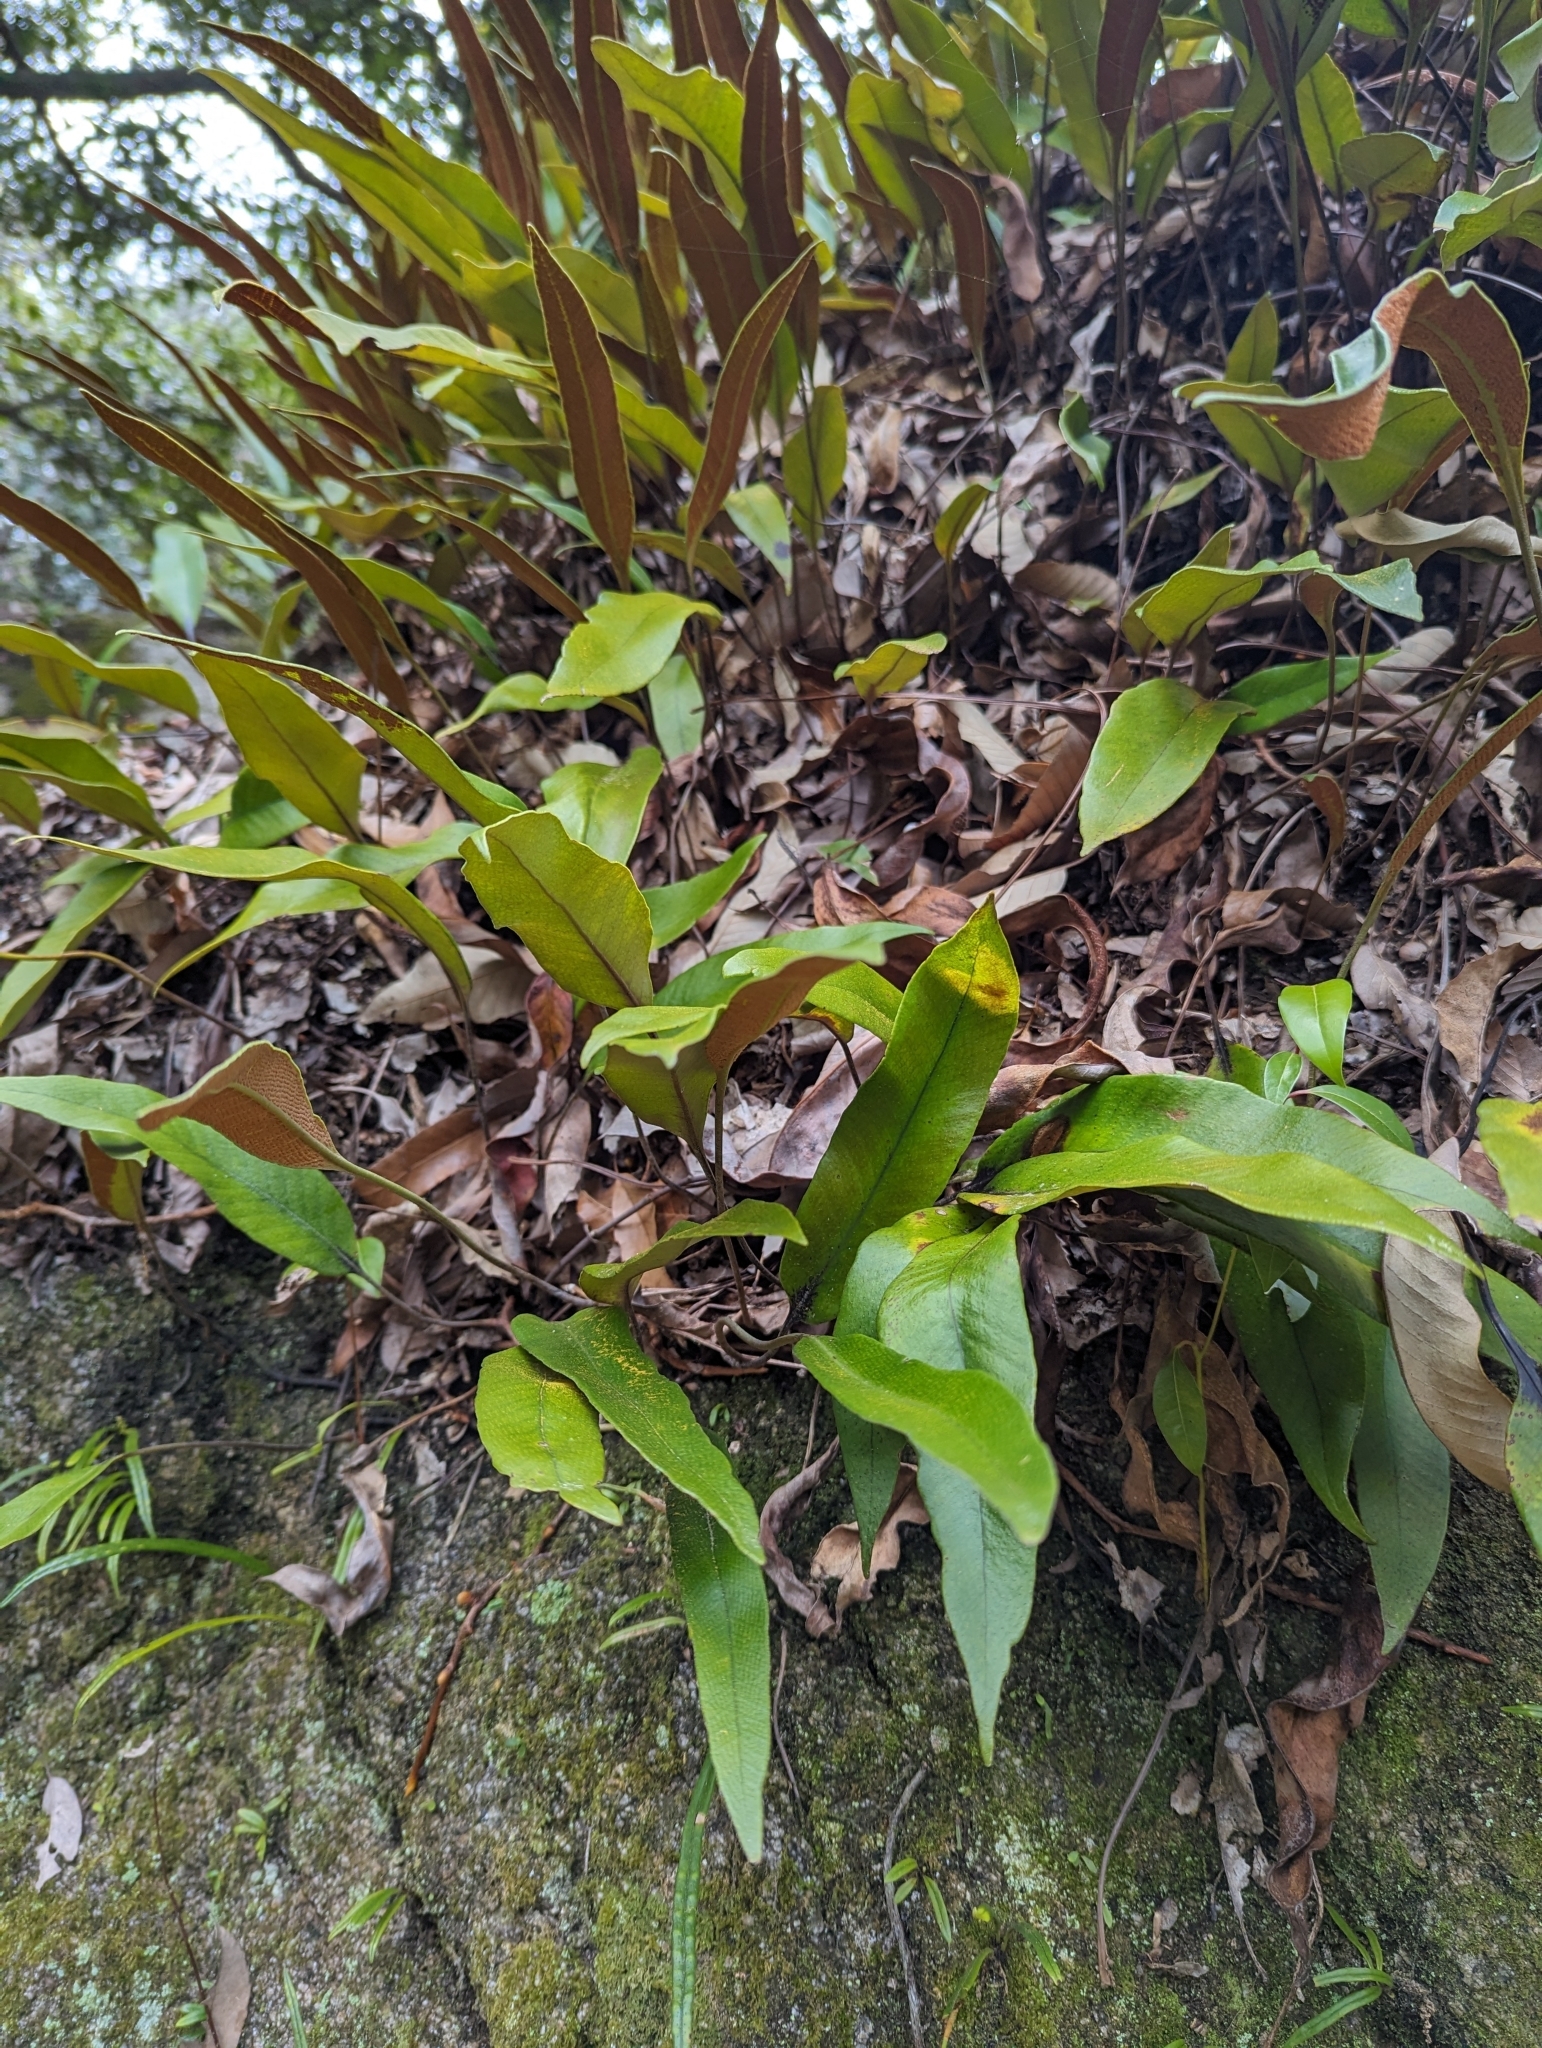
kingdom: Plantae
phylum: Tracheophyta
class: Polypodiopsida
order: Polypodiales
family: Polypodiaceae
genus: Pyrrosia
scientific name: Pyrrosia lingua
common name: Felt fern
